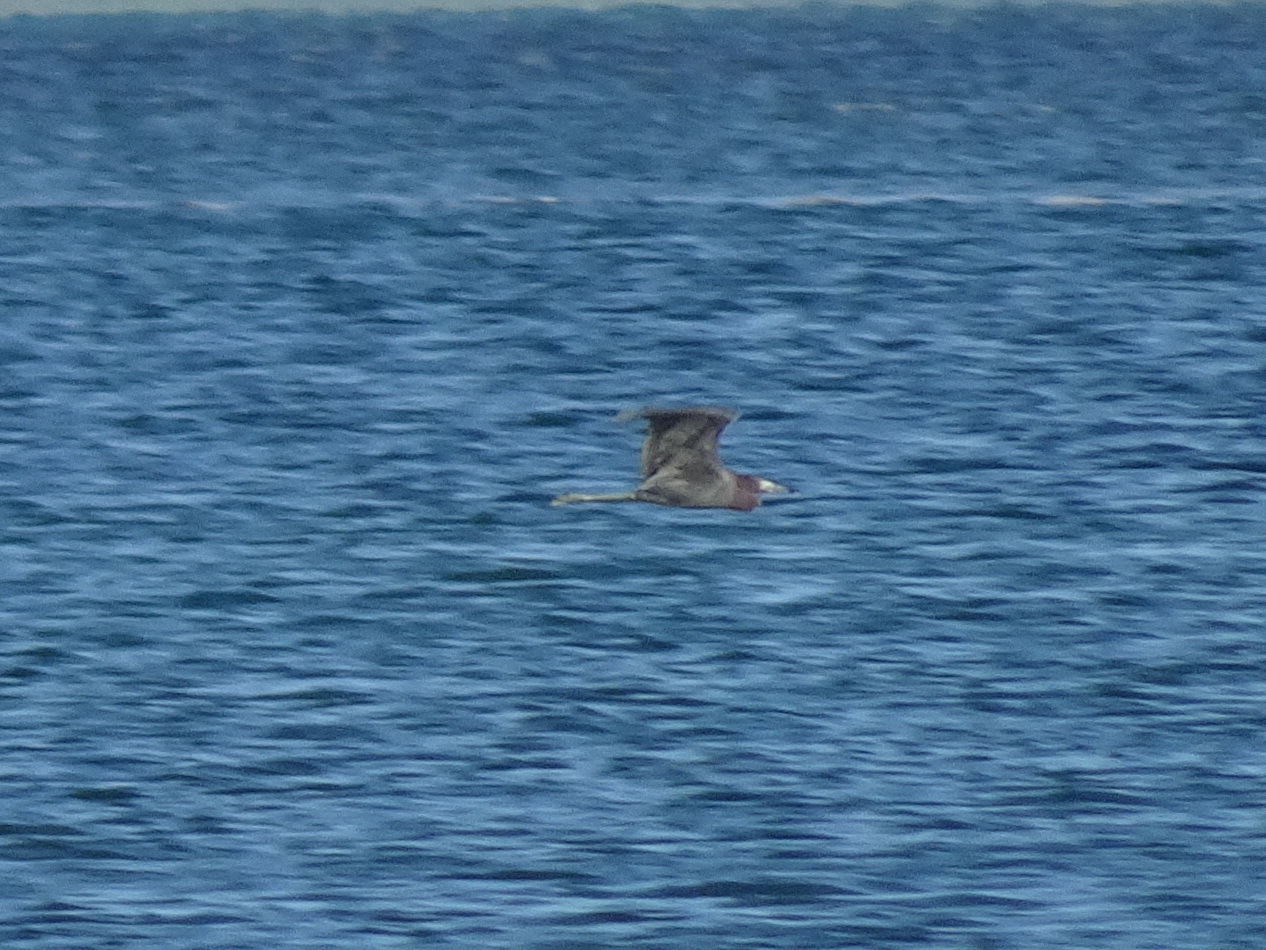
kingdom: Animalia
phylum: Chordata
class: Aves
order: Pelecaniformes
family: Ardeidae
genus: Egretta
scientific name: Egretta rufescens
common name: Reddish egret
